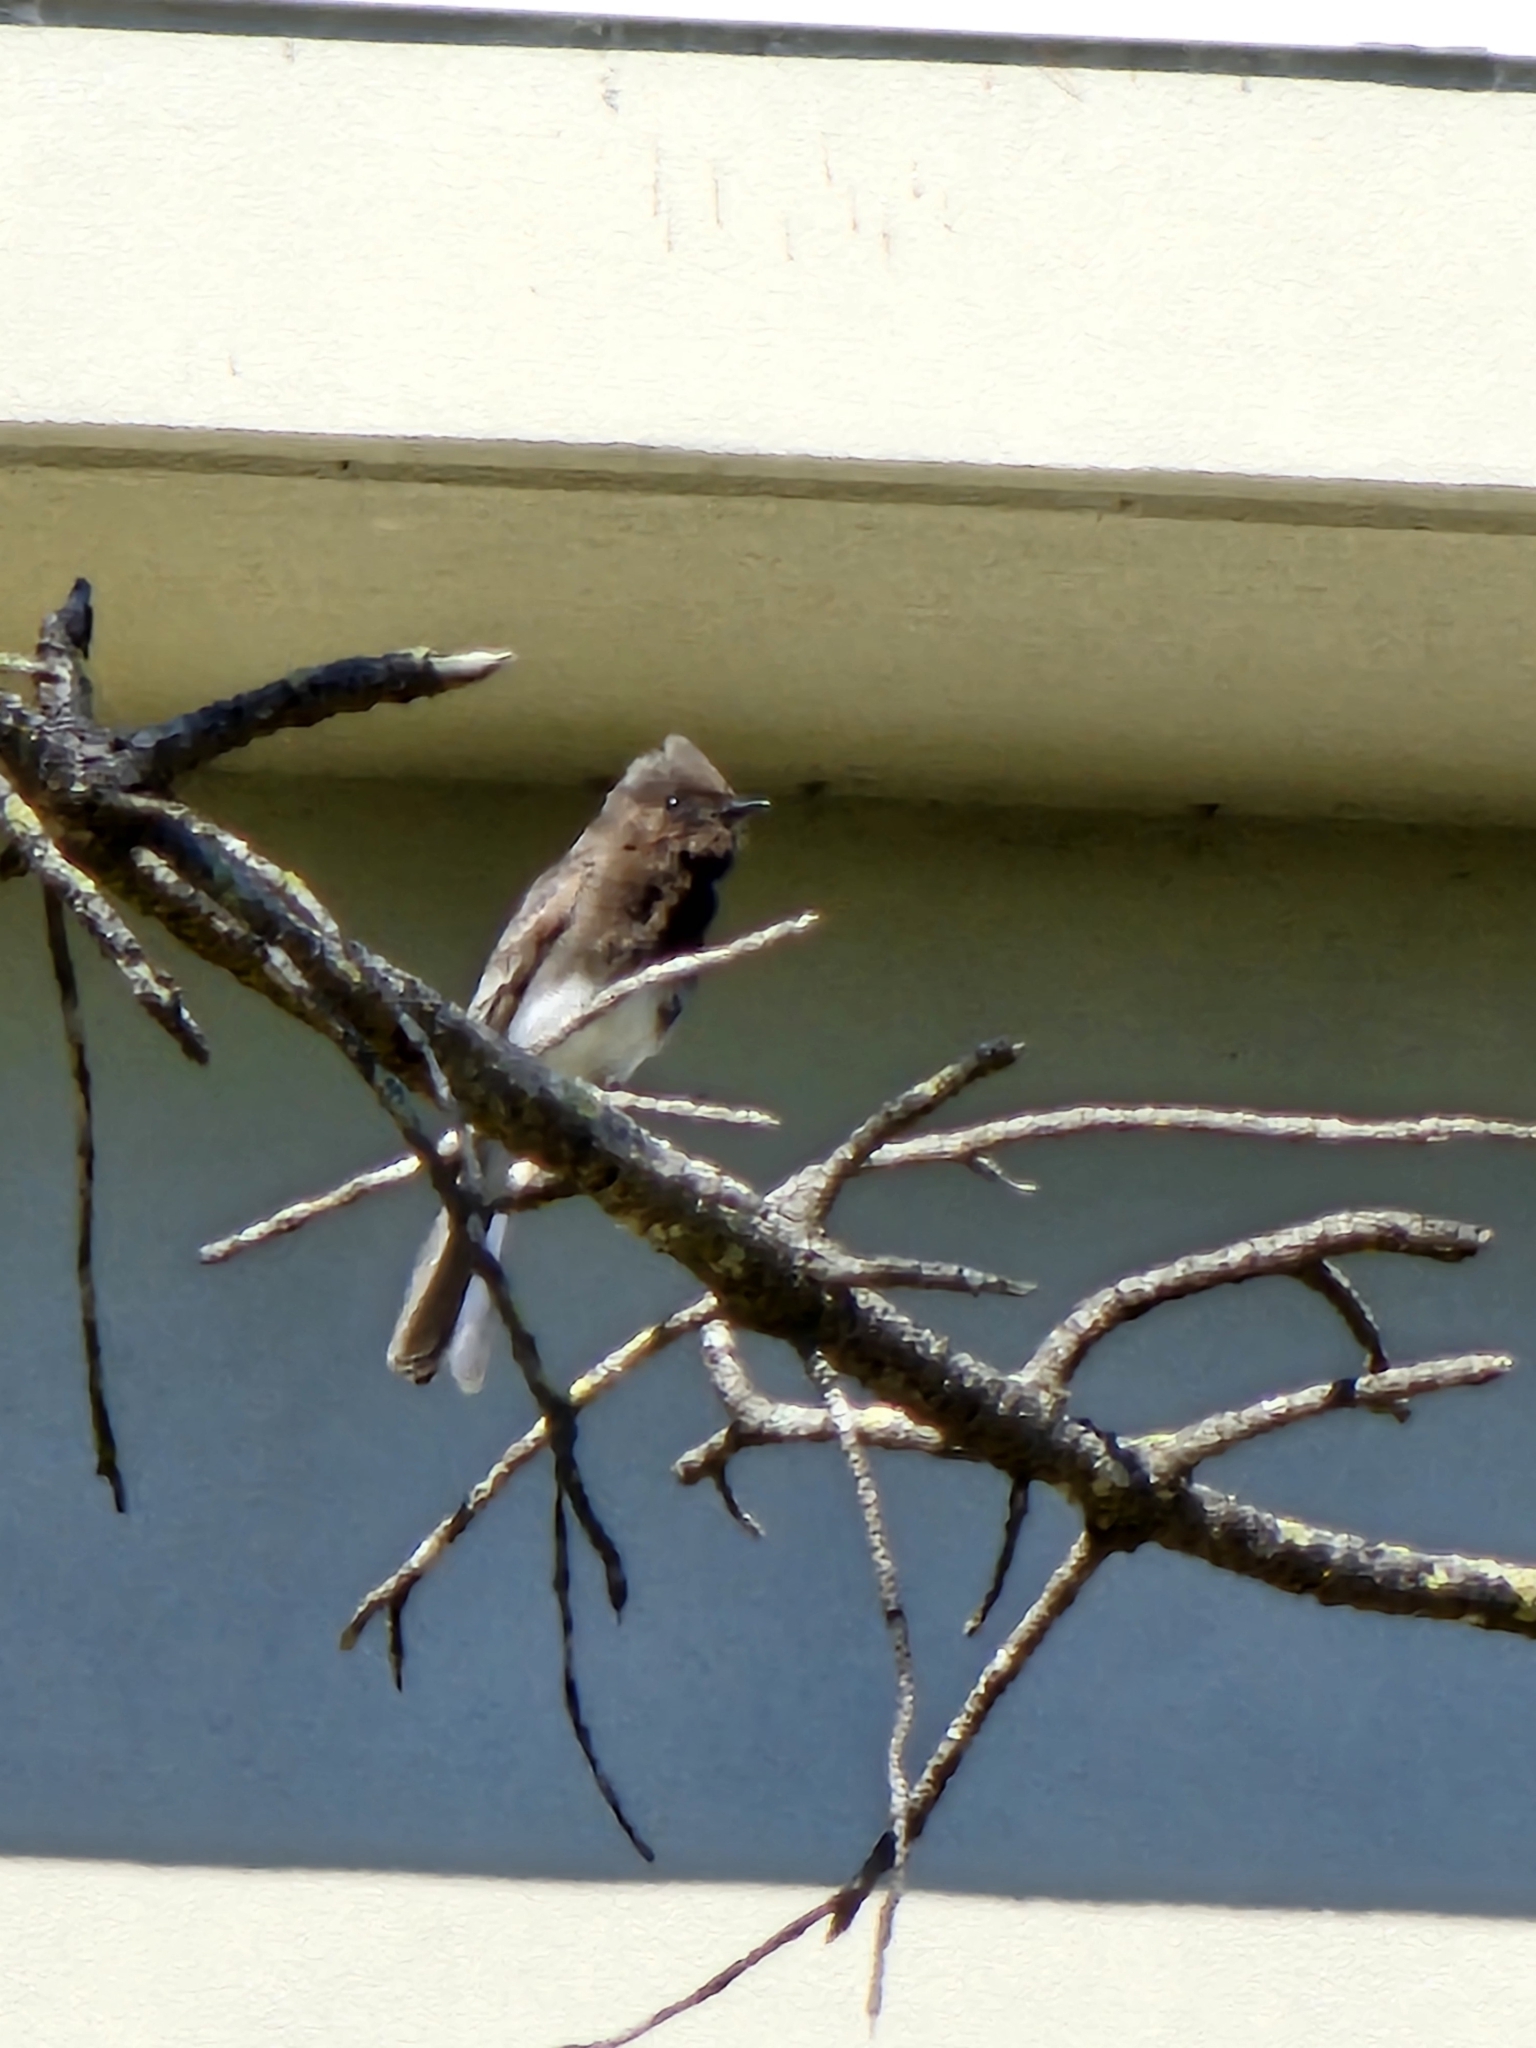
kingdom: Animalia
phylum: Chordata
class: Aves
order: Passeriformes
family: Tyrannidae
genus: Sayornis
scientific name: Sayornis nigricans
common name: Black phoebe
